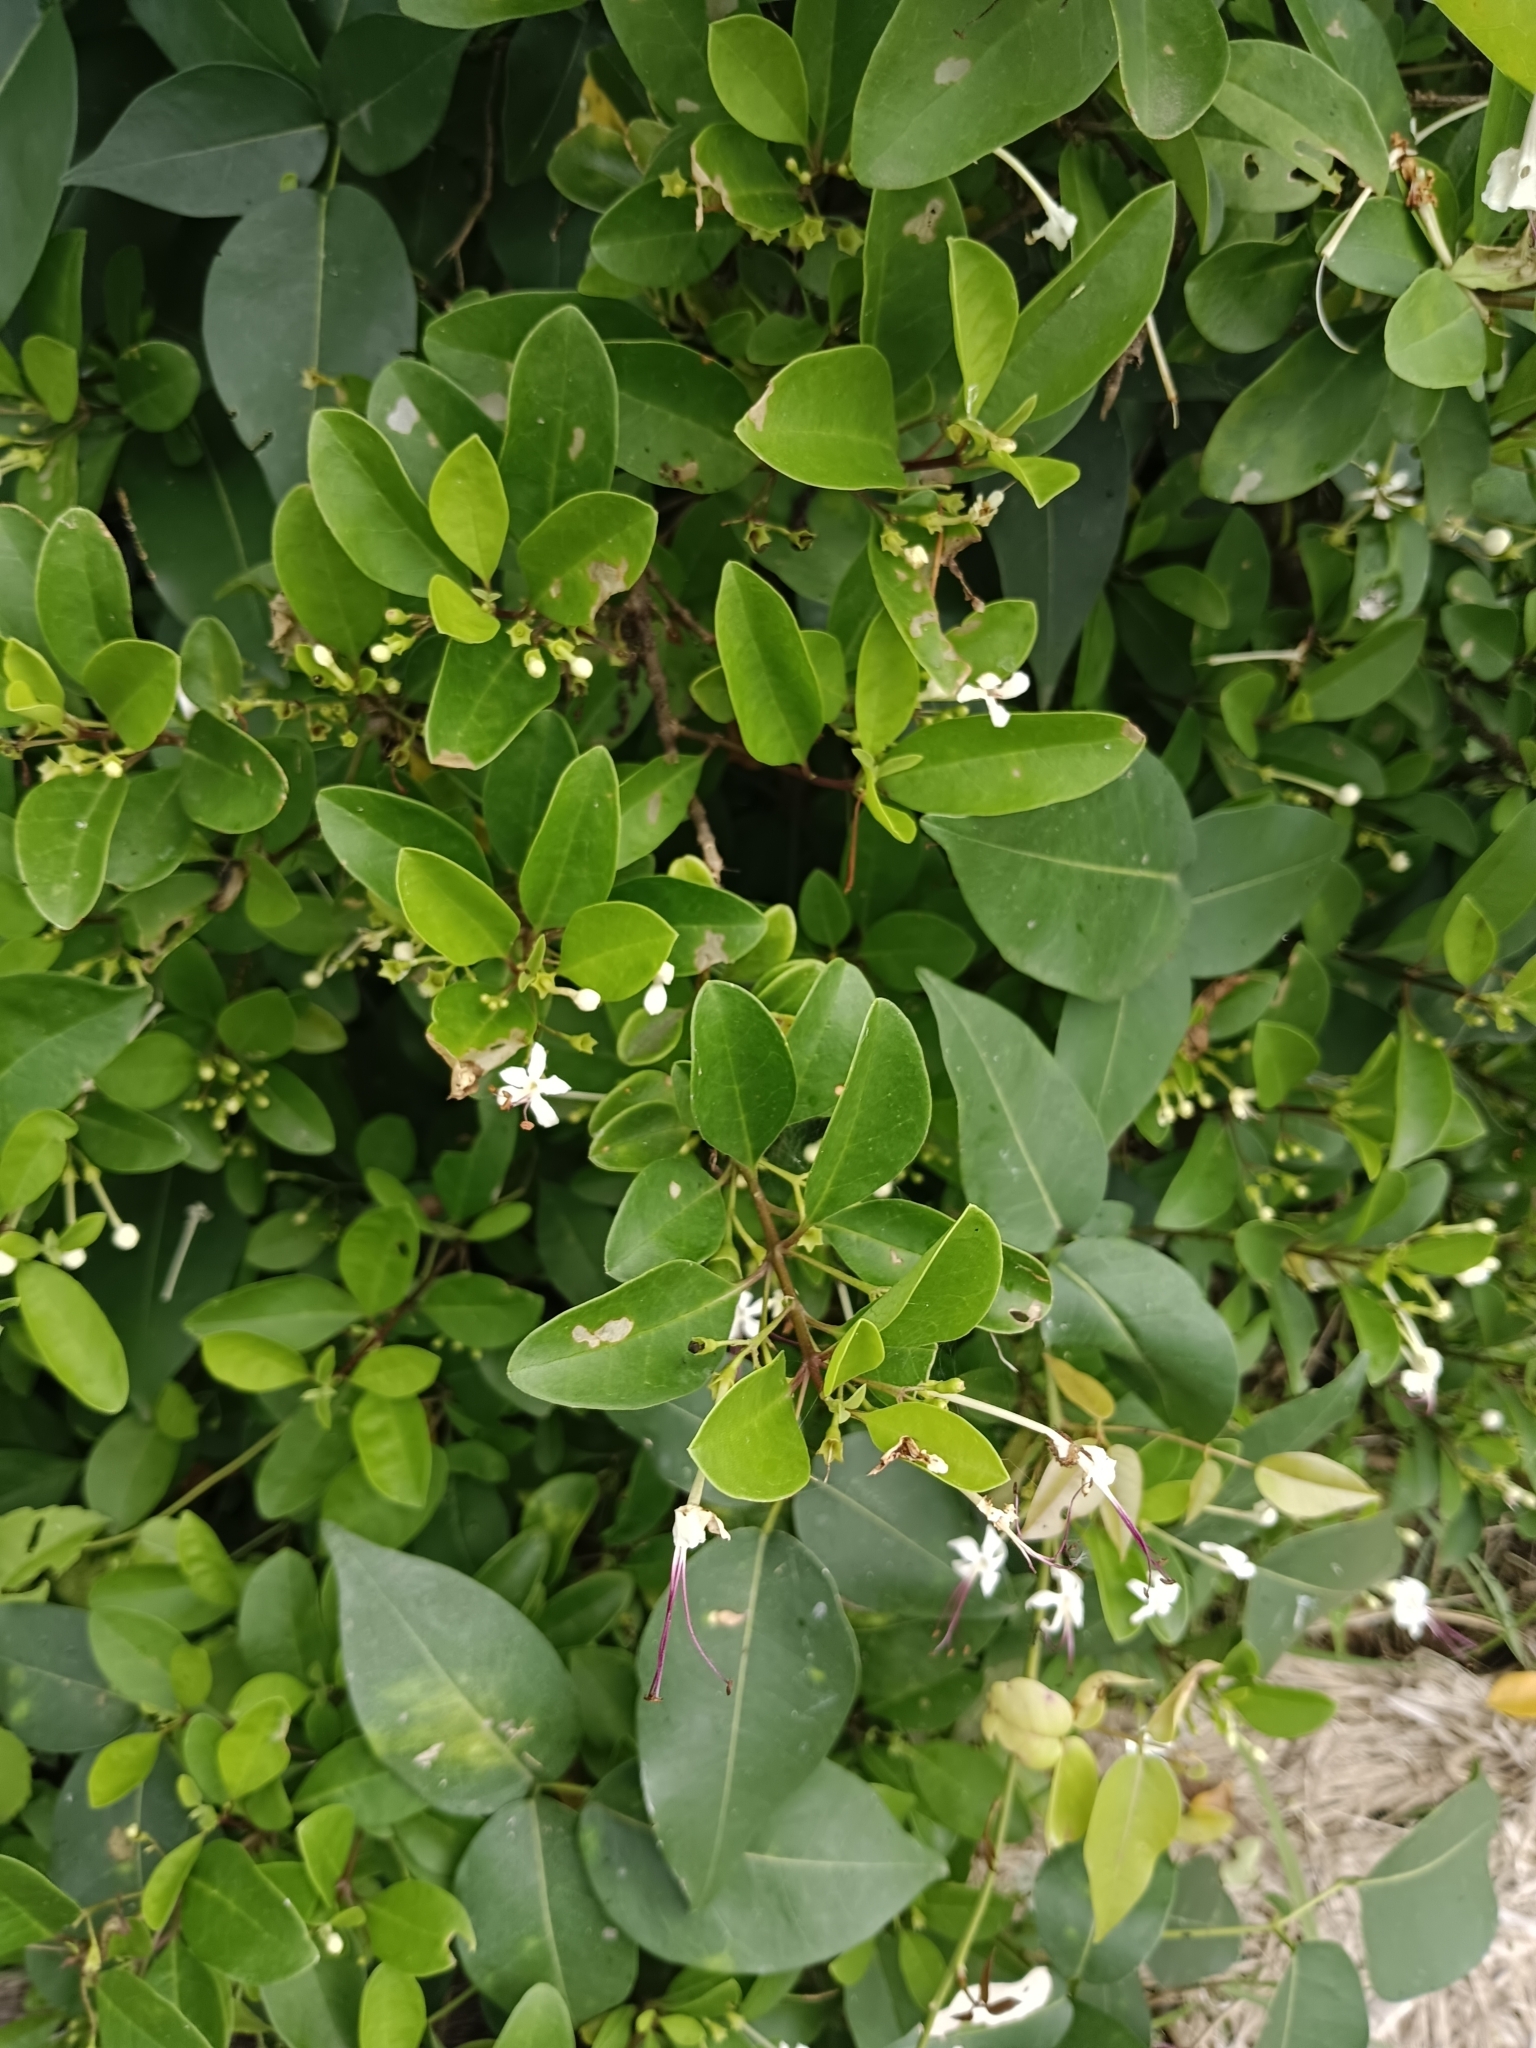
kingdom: Plantae
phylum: Tracheophyta
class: Magnoliopsida
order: Lamiales
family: Lamiaceae
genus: Volkameria
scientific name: Volkameria inermis
